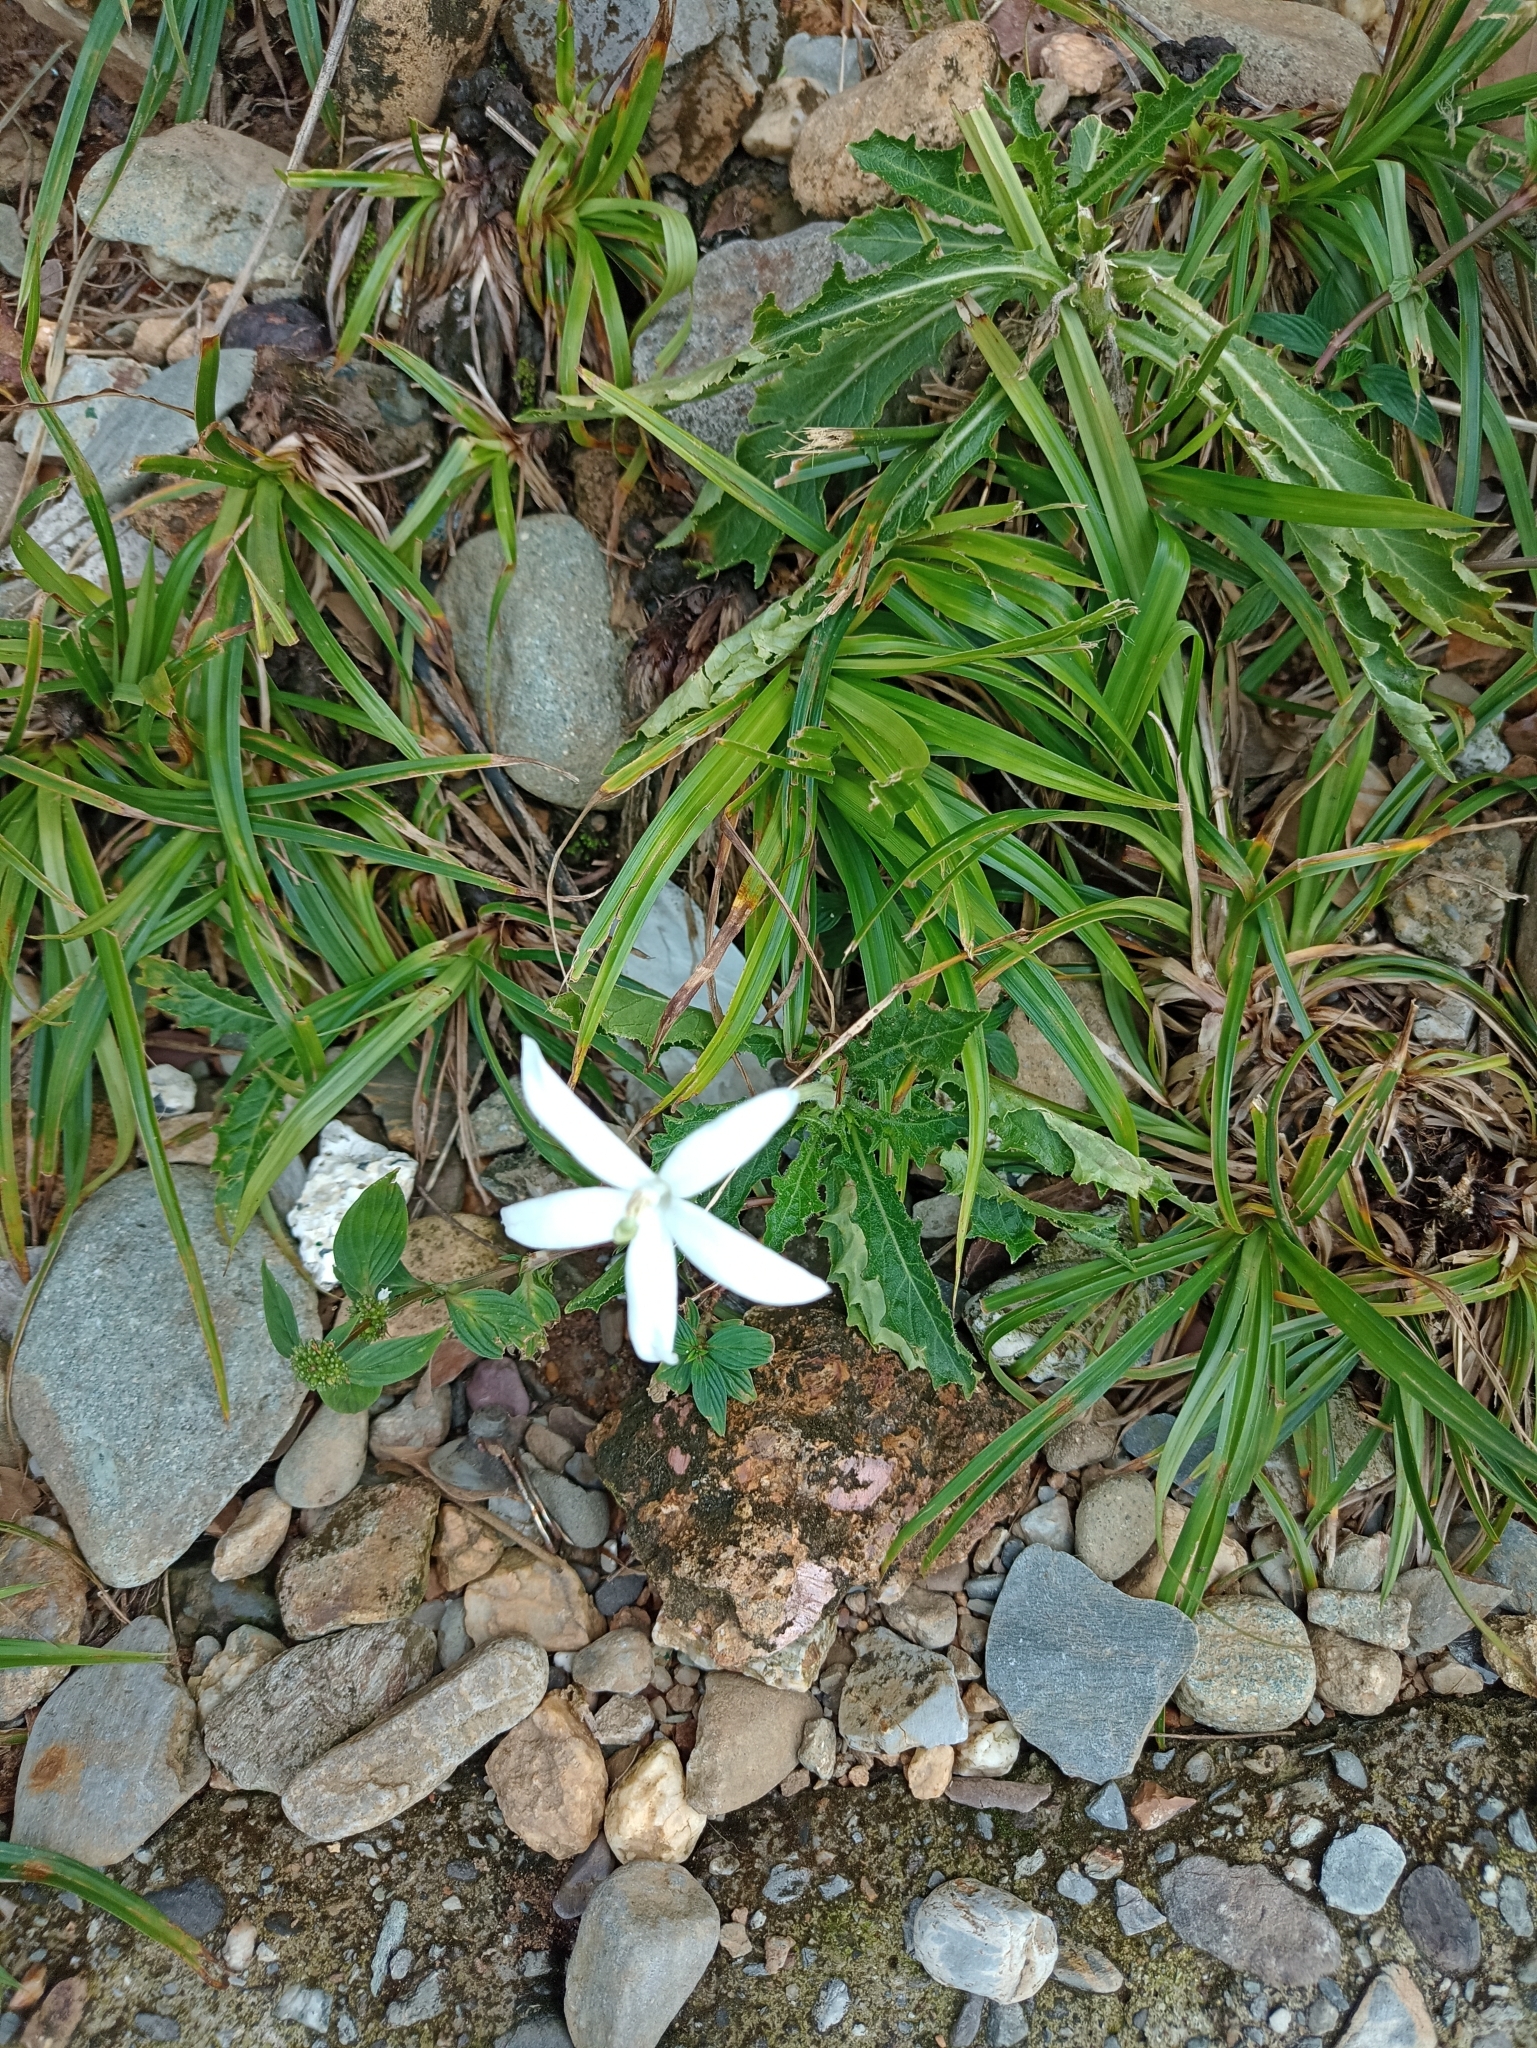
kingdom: Plantae
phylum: Tracheophyta
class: Magnoliopsida
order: Asterales
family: Campanulaceae
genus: Hippobroma
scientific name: Hippobroma longiflora
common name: Madamfate
